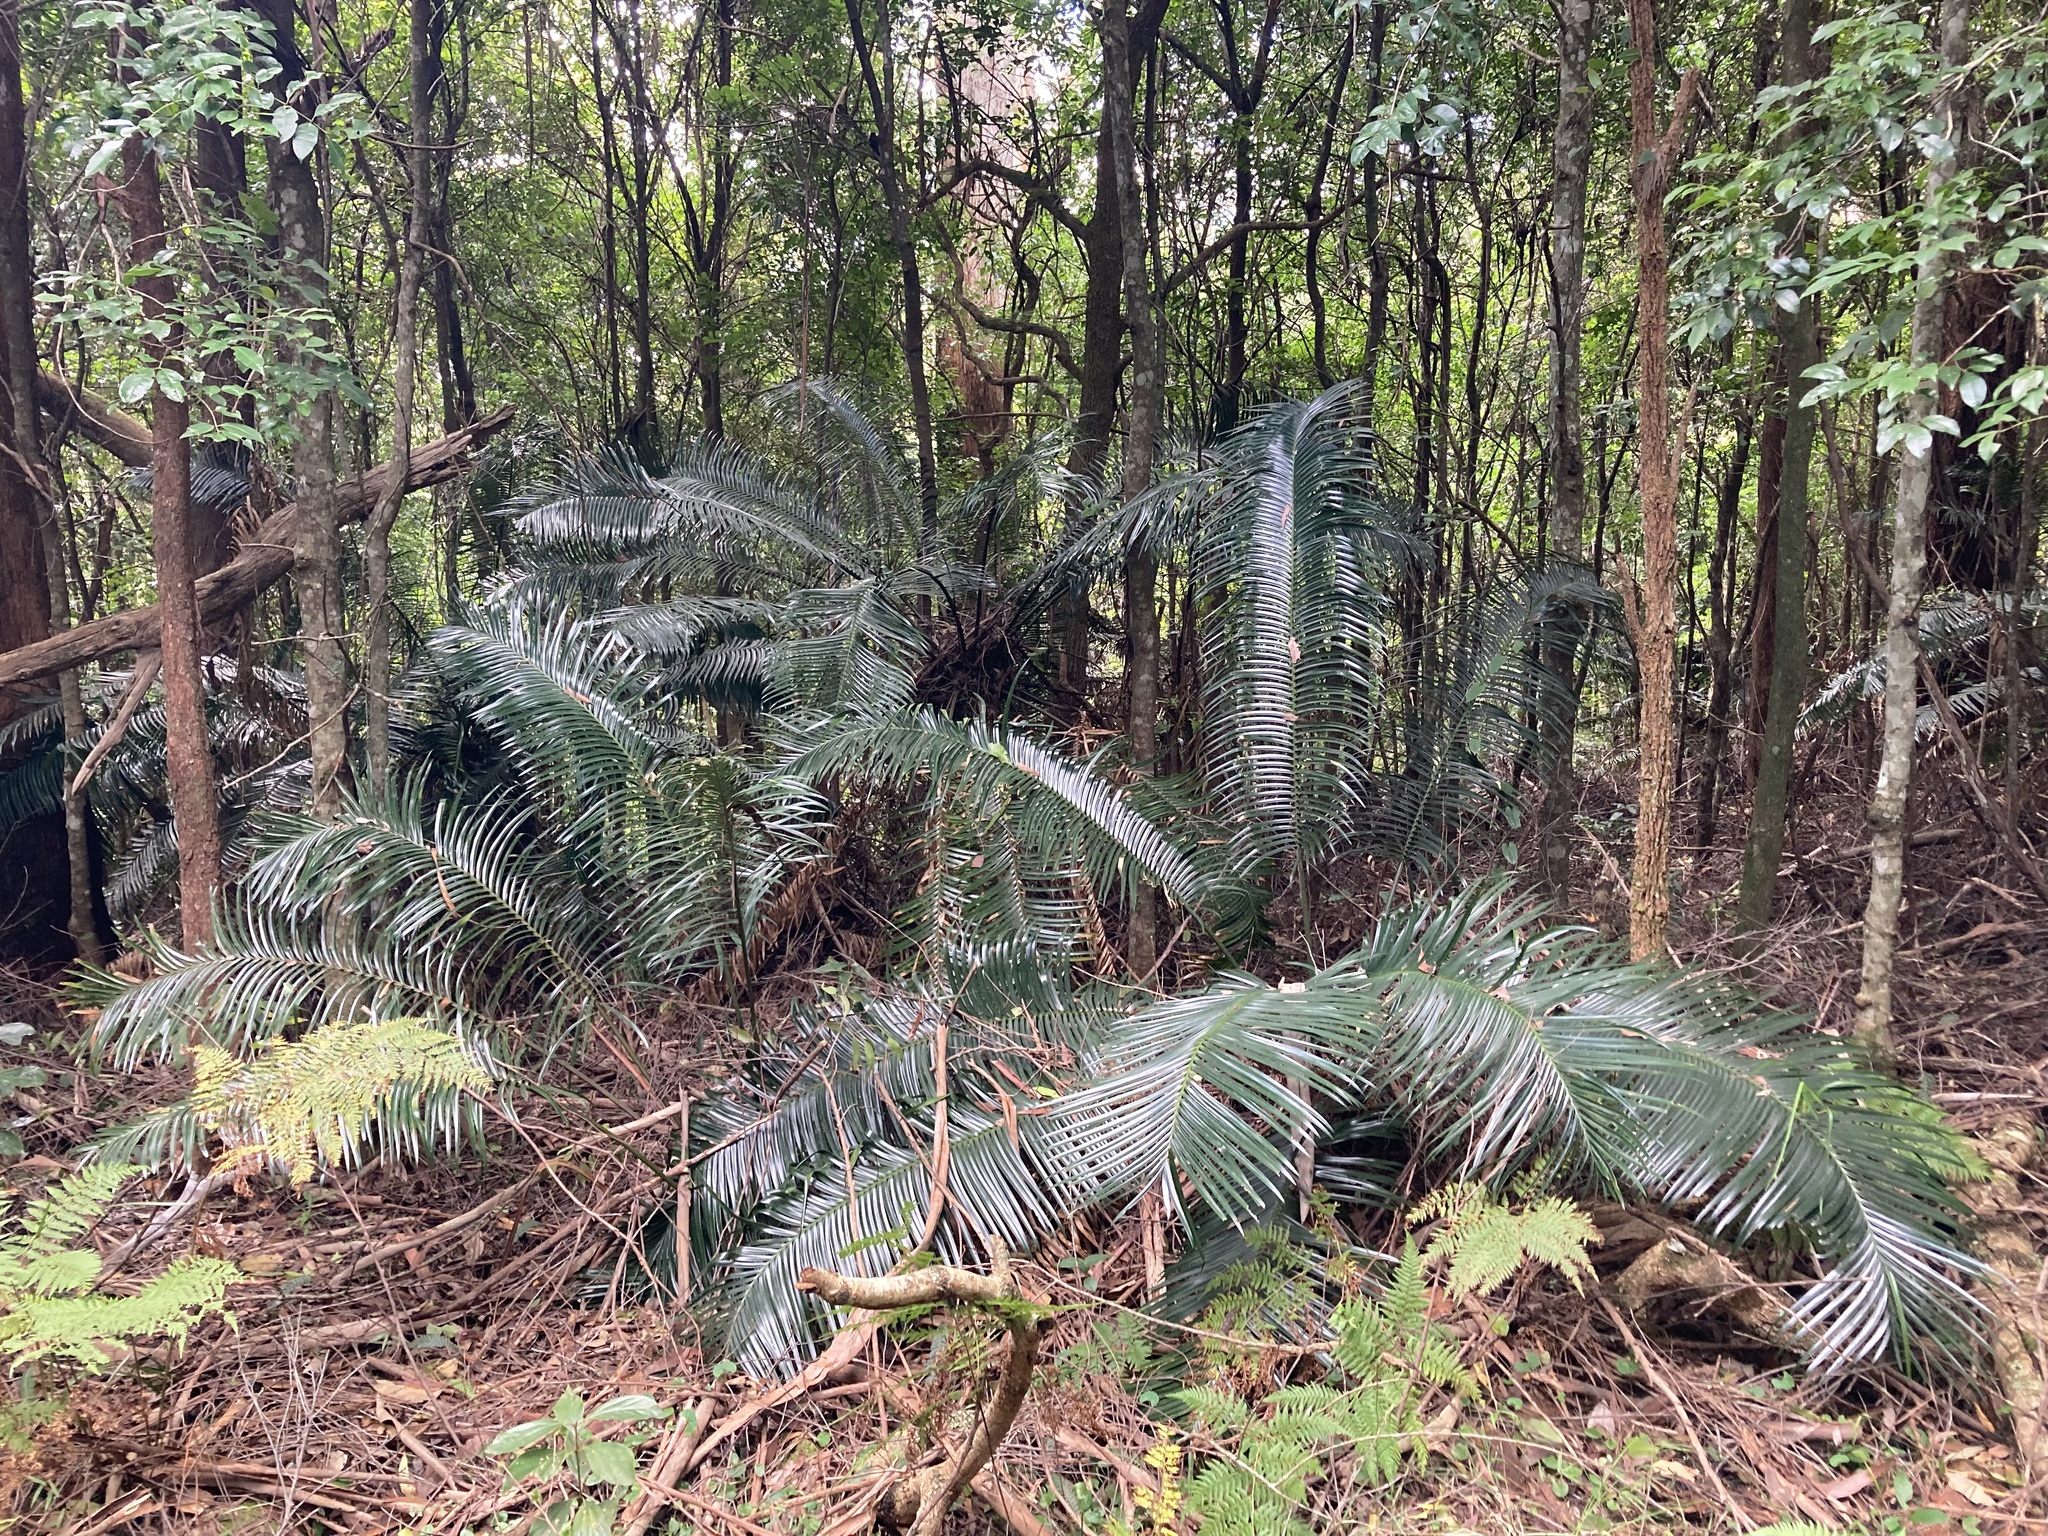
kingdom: Plantae
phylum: Tracheophyta
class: Cycadopsida
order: Cycadales
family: Zamiaceae
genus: Lepidozamia
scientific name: Lepidozamia peroffskyana
